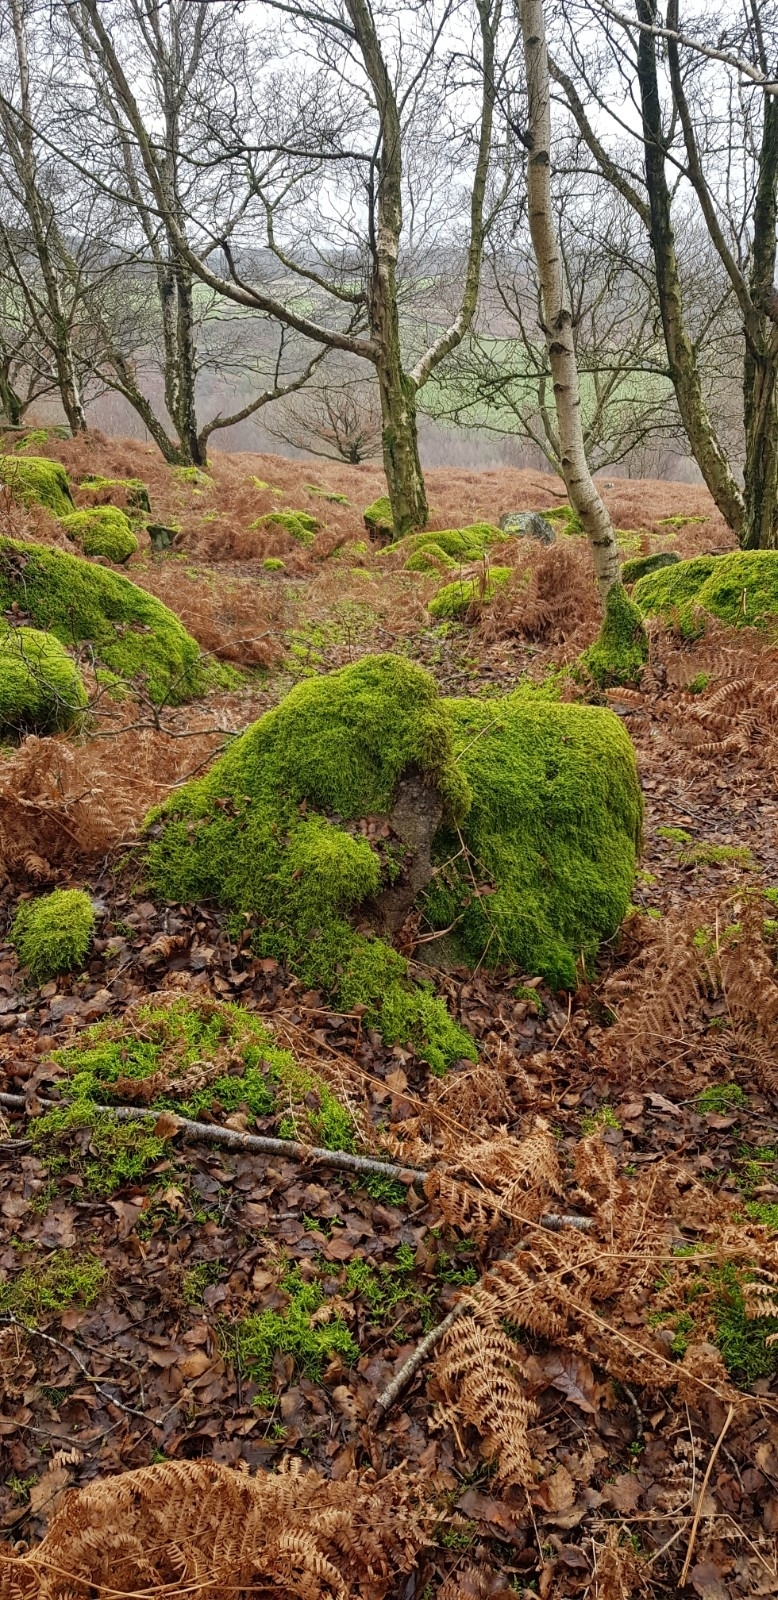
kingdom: Plantae
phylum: Bryophyta
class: Bryopsida
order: Hypnales
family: Brachytheciaceae
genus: Kindbergia
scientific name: Kindbergia praelonga
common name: Slender beaked moss
